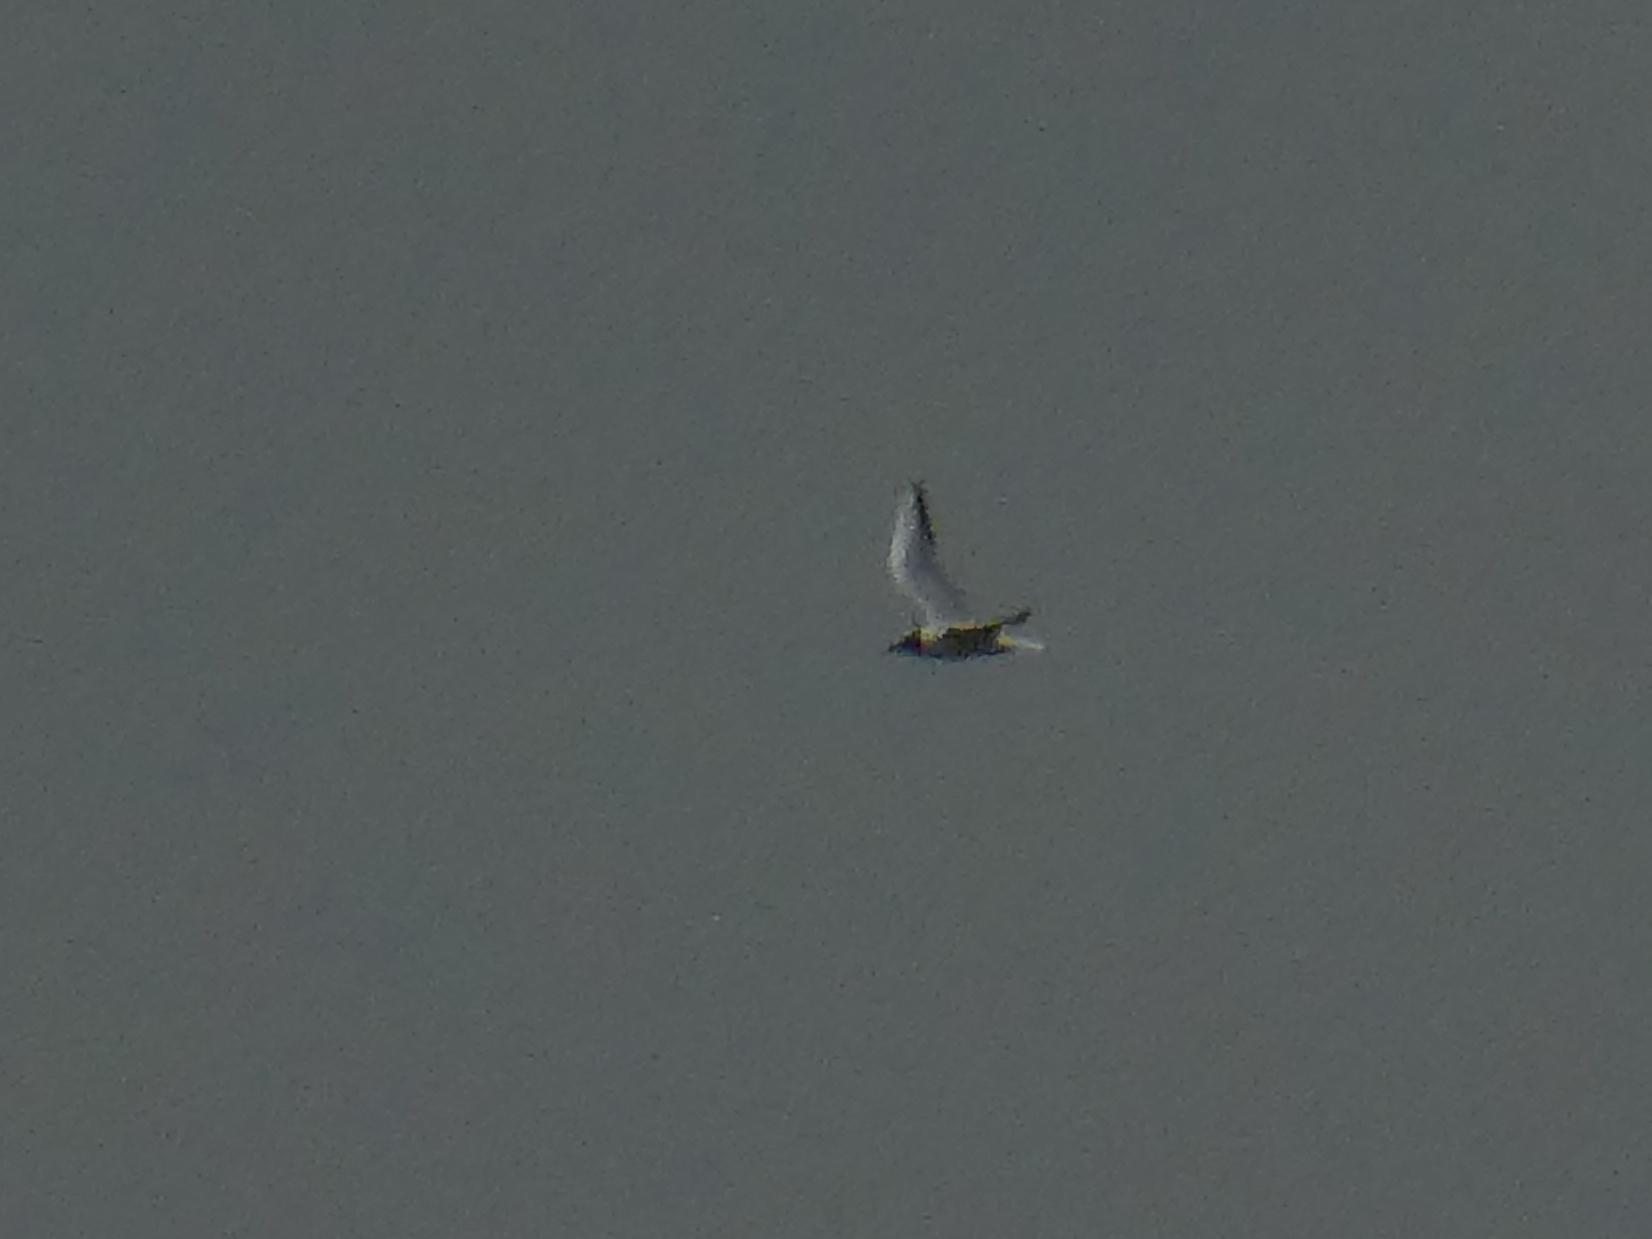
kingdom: Animalia
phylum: Chordata
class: Aves
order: Charadriiformes
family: Laridae
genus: Chroicocephalus
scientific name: Chroicocephalus ridibundus
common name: Black-headed gull
